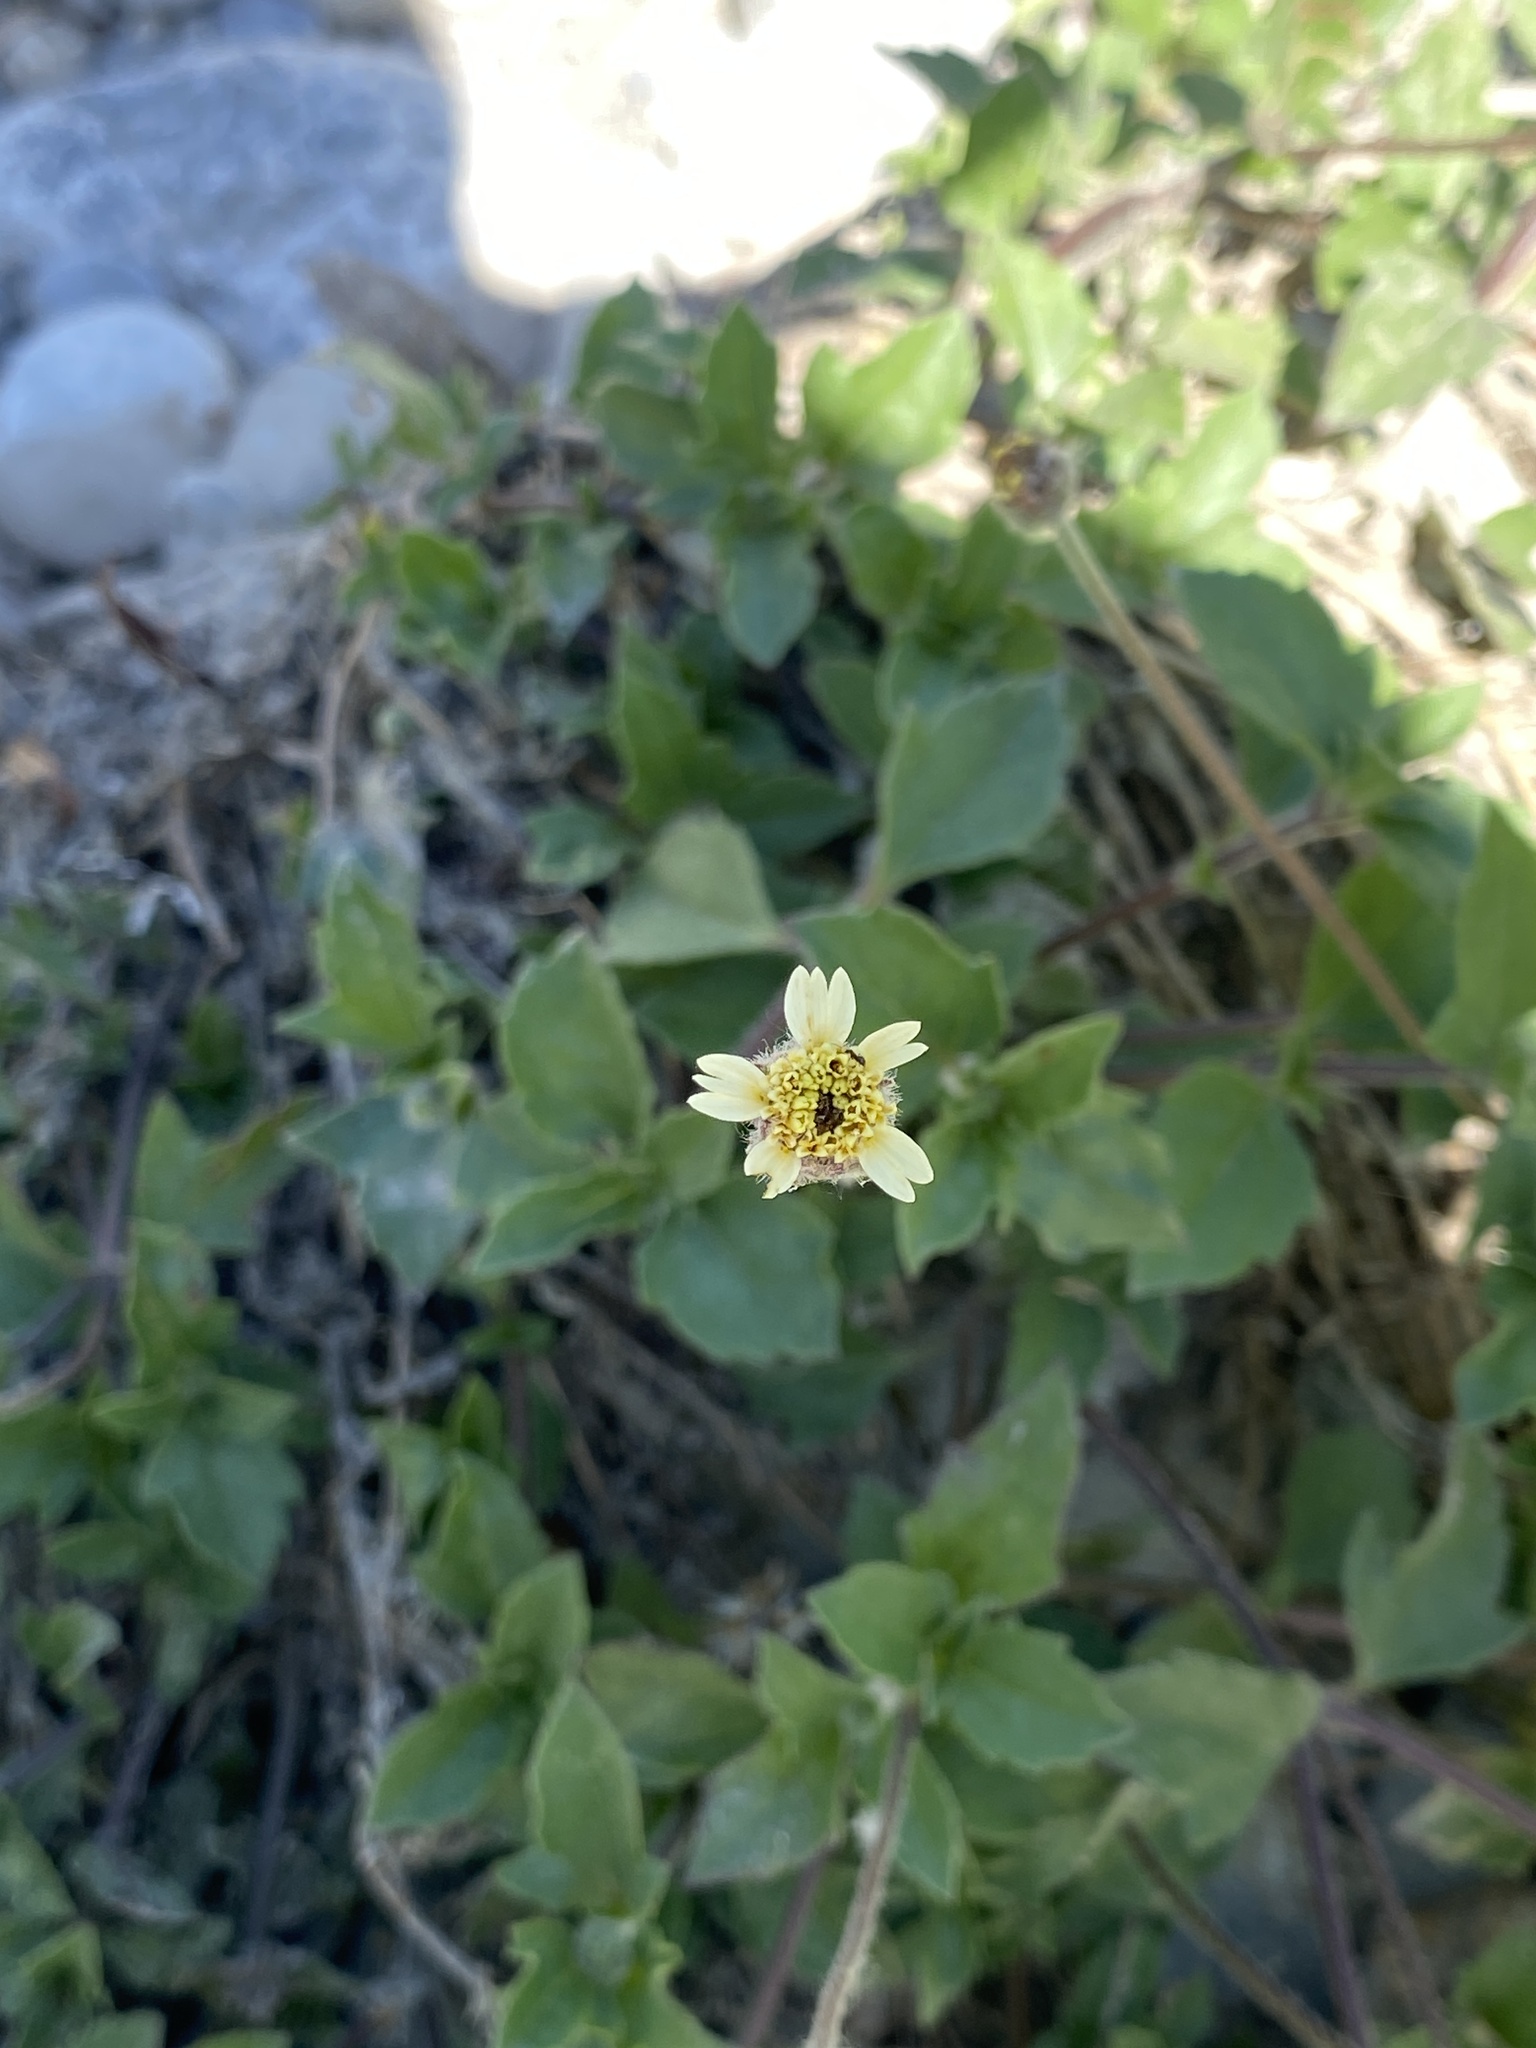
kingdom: Plantae
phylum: Tracheophyta
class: Magnoliopsida
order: Asterales
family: Asteraceae
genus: Tridax
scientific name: Tridax procumbens
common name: Coatbuttons
